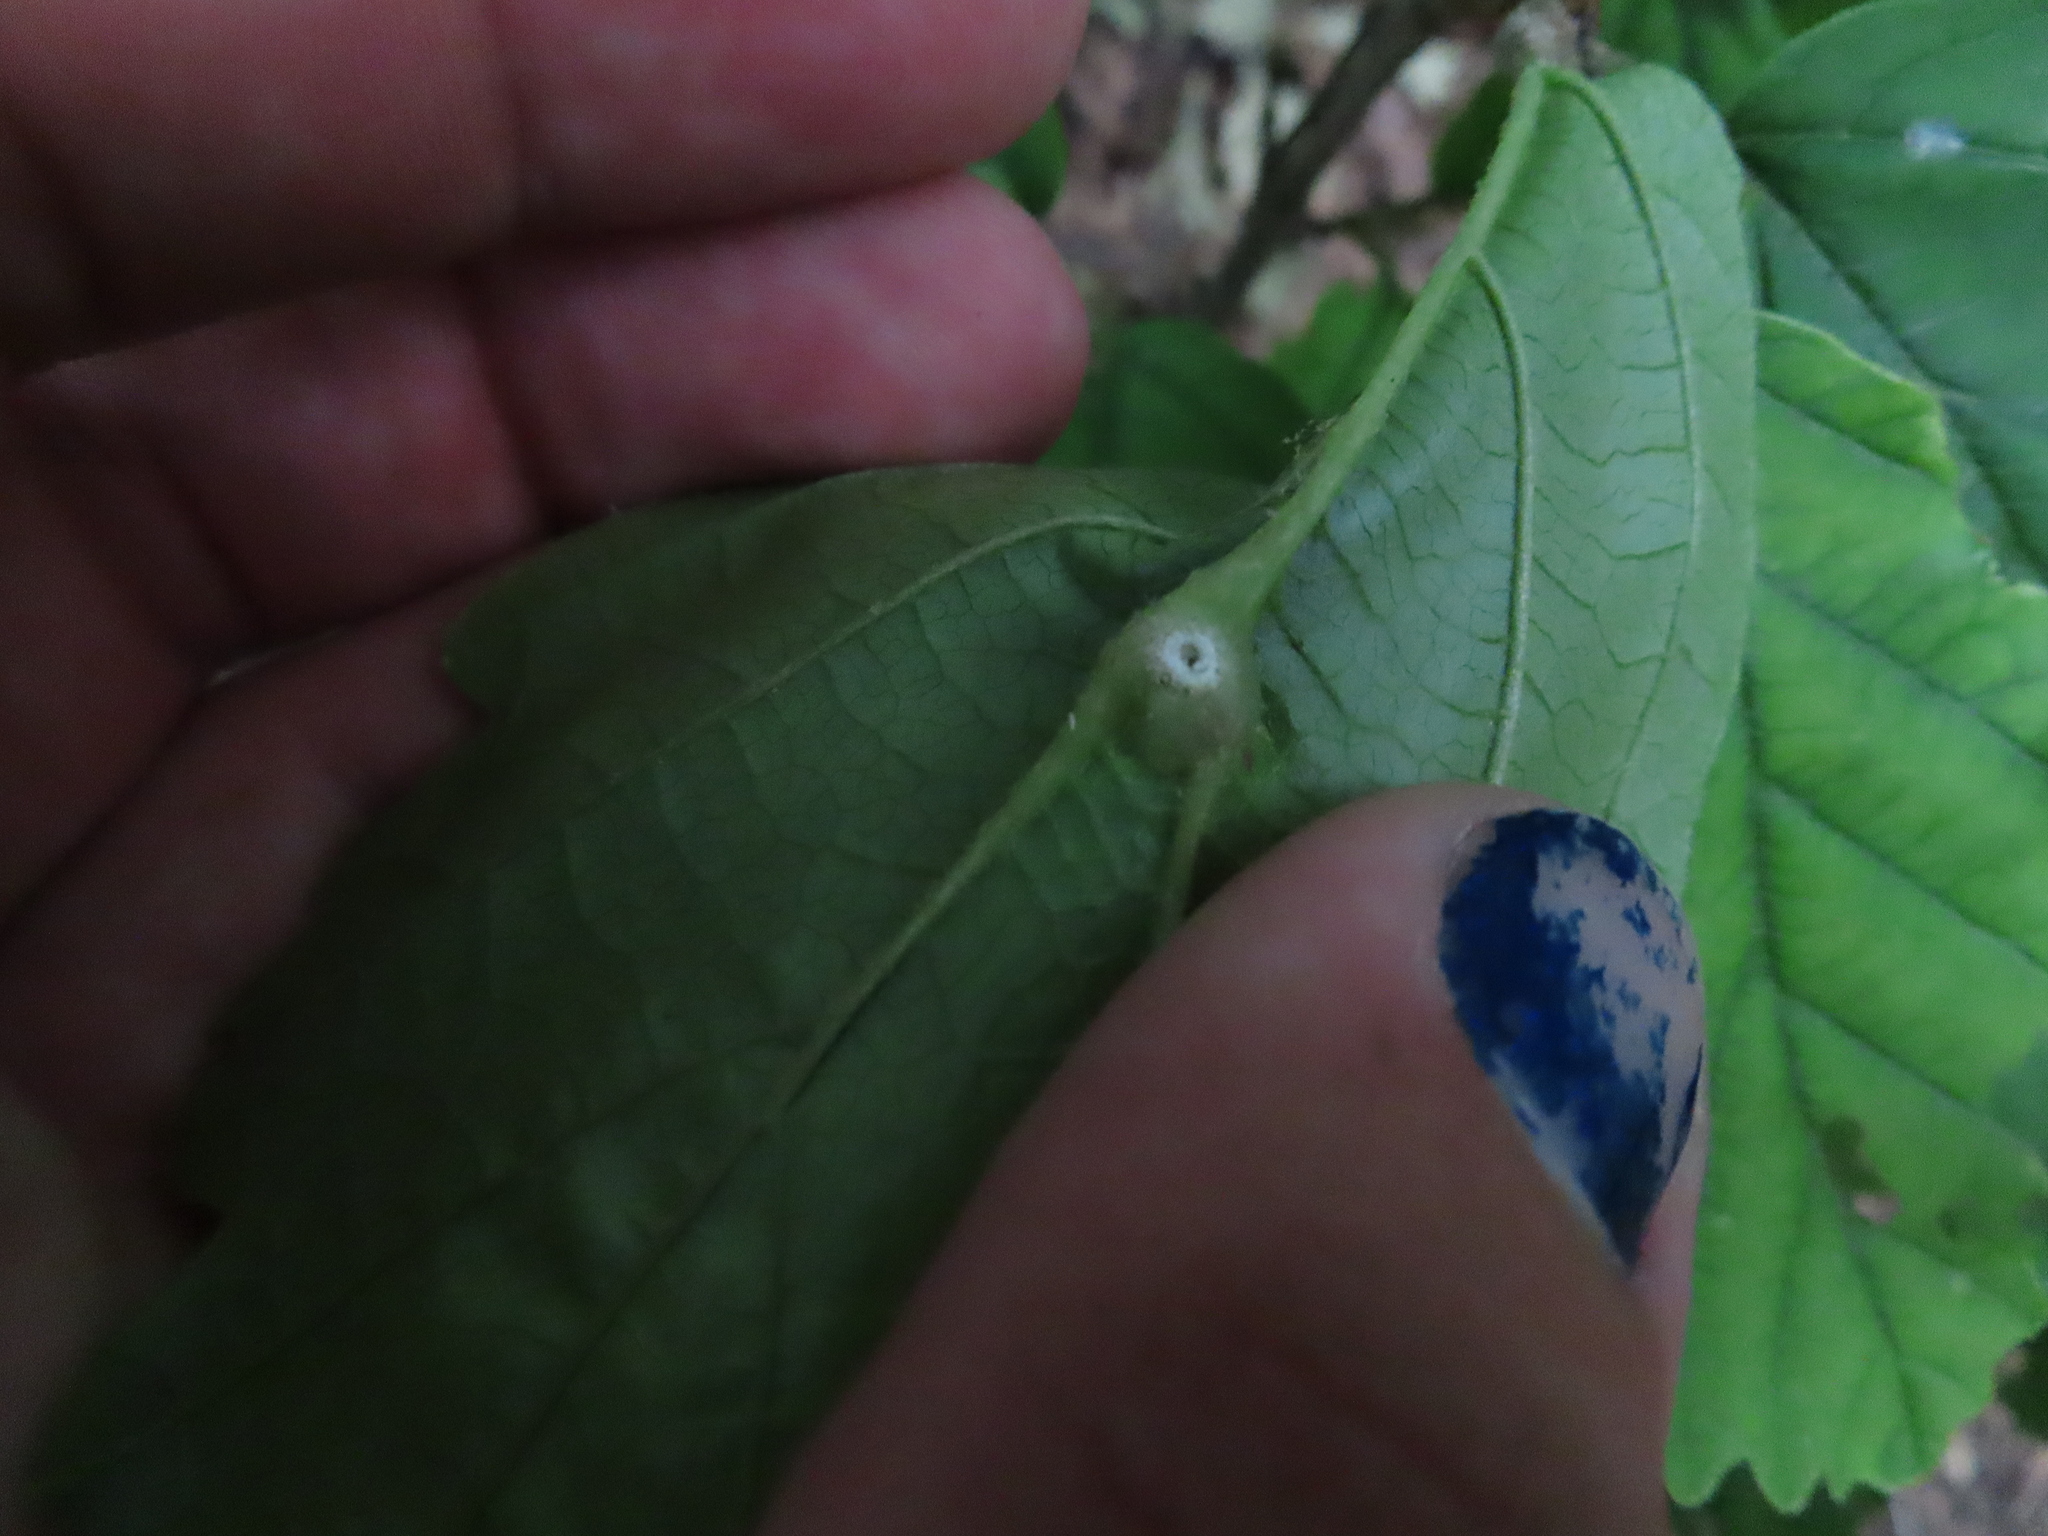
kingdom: Animalia
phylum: Arthropoda
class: Insecta
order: Hemiptera
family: Aphididae
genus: Hormaphis
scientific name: Hormaphis hamamelidis
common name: Witch-hazel cone gall aphid
